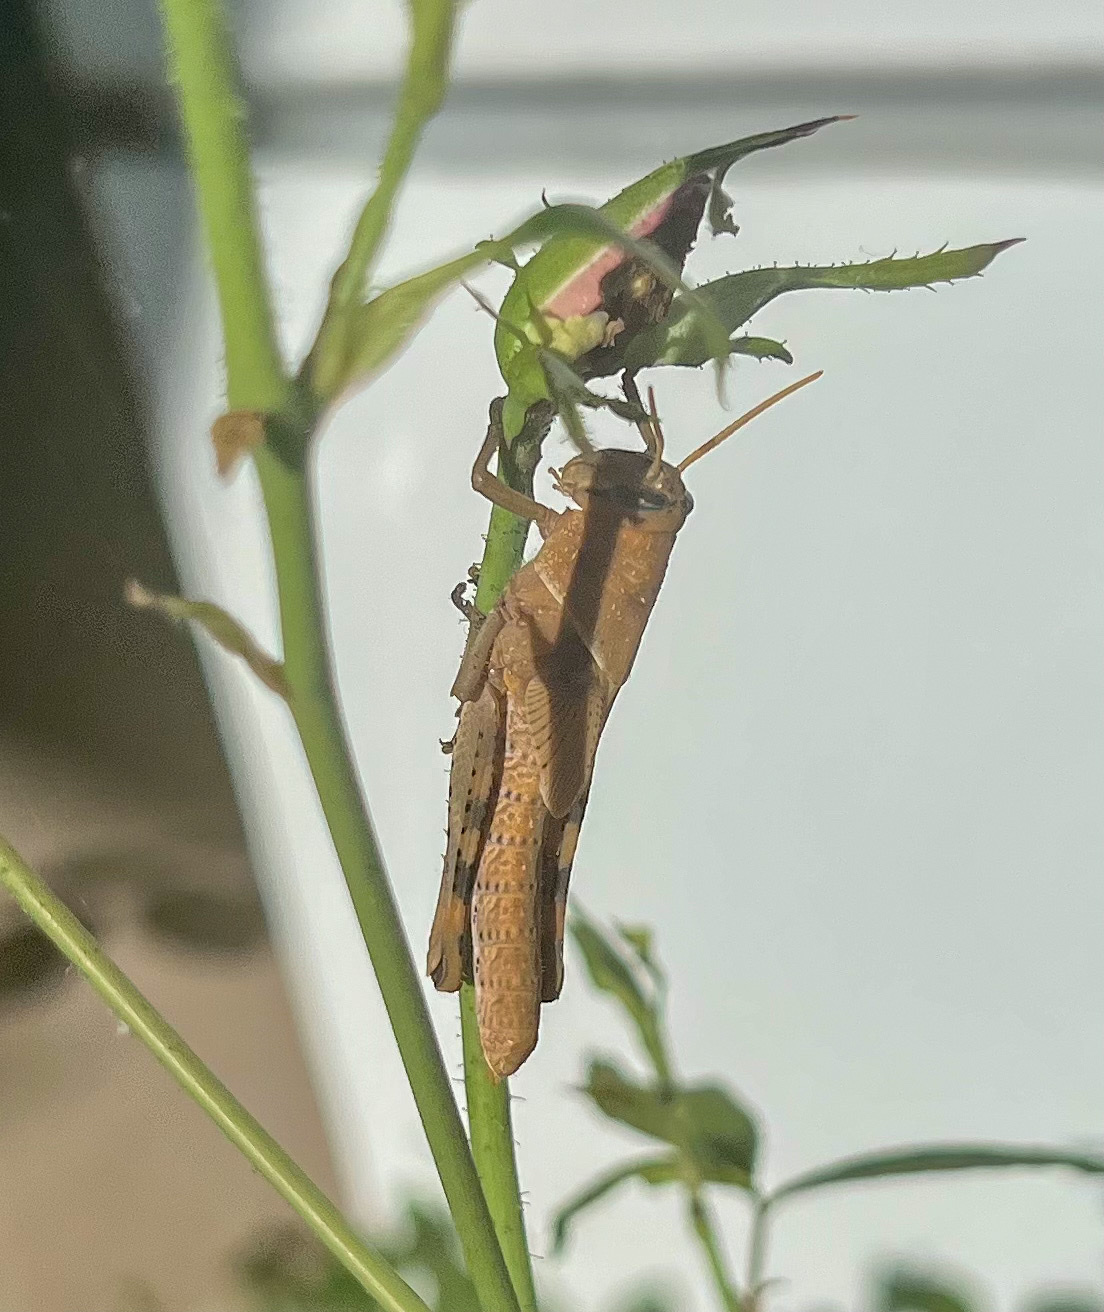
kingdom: Animalia
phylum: Arthropoda
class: Insecta
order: Orthoptera
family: Acrididae
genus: Schistocerca
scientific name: Schistocerca nitens
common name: Vagrant grasshopper
